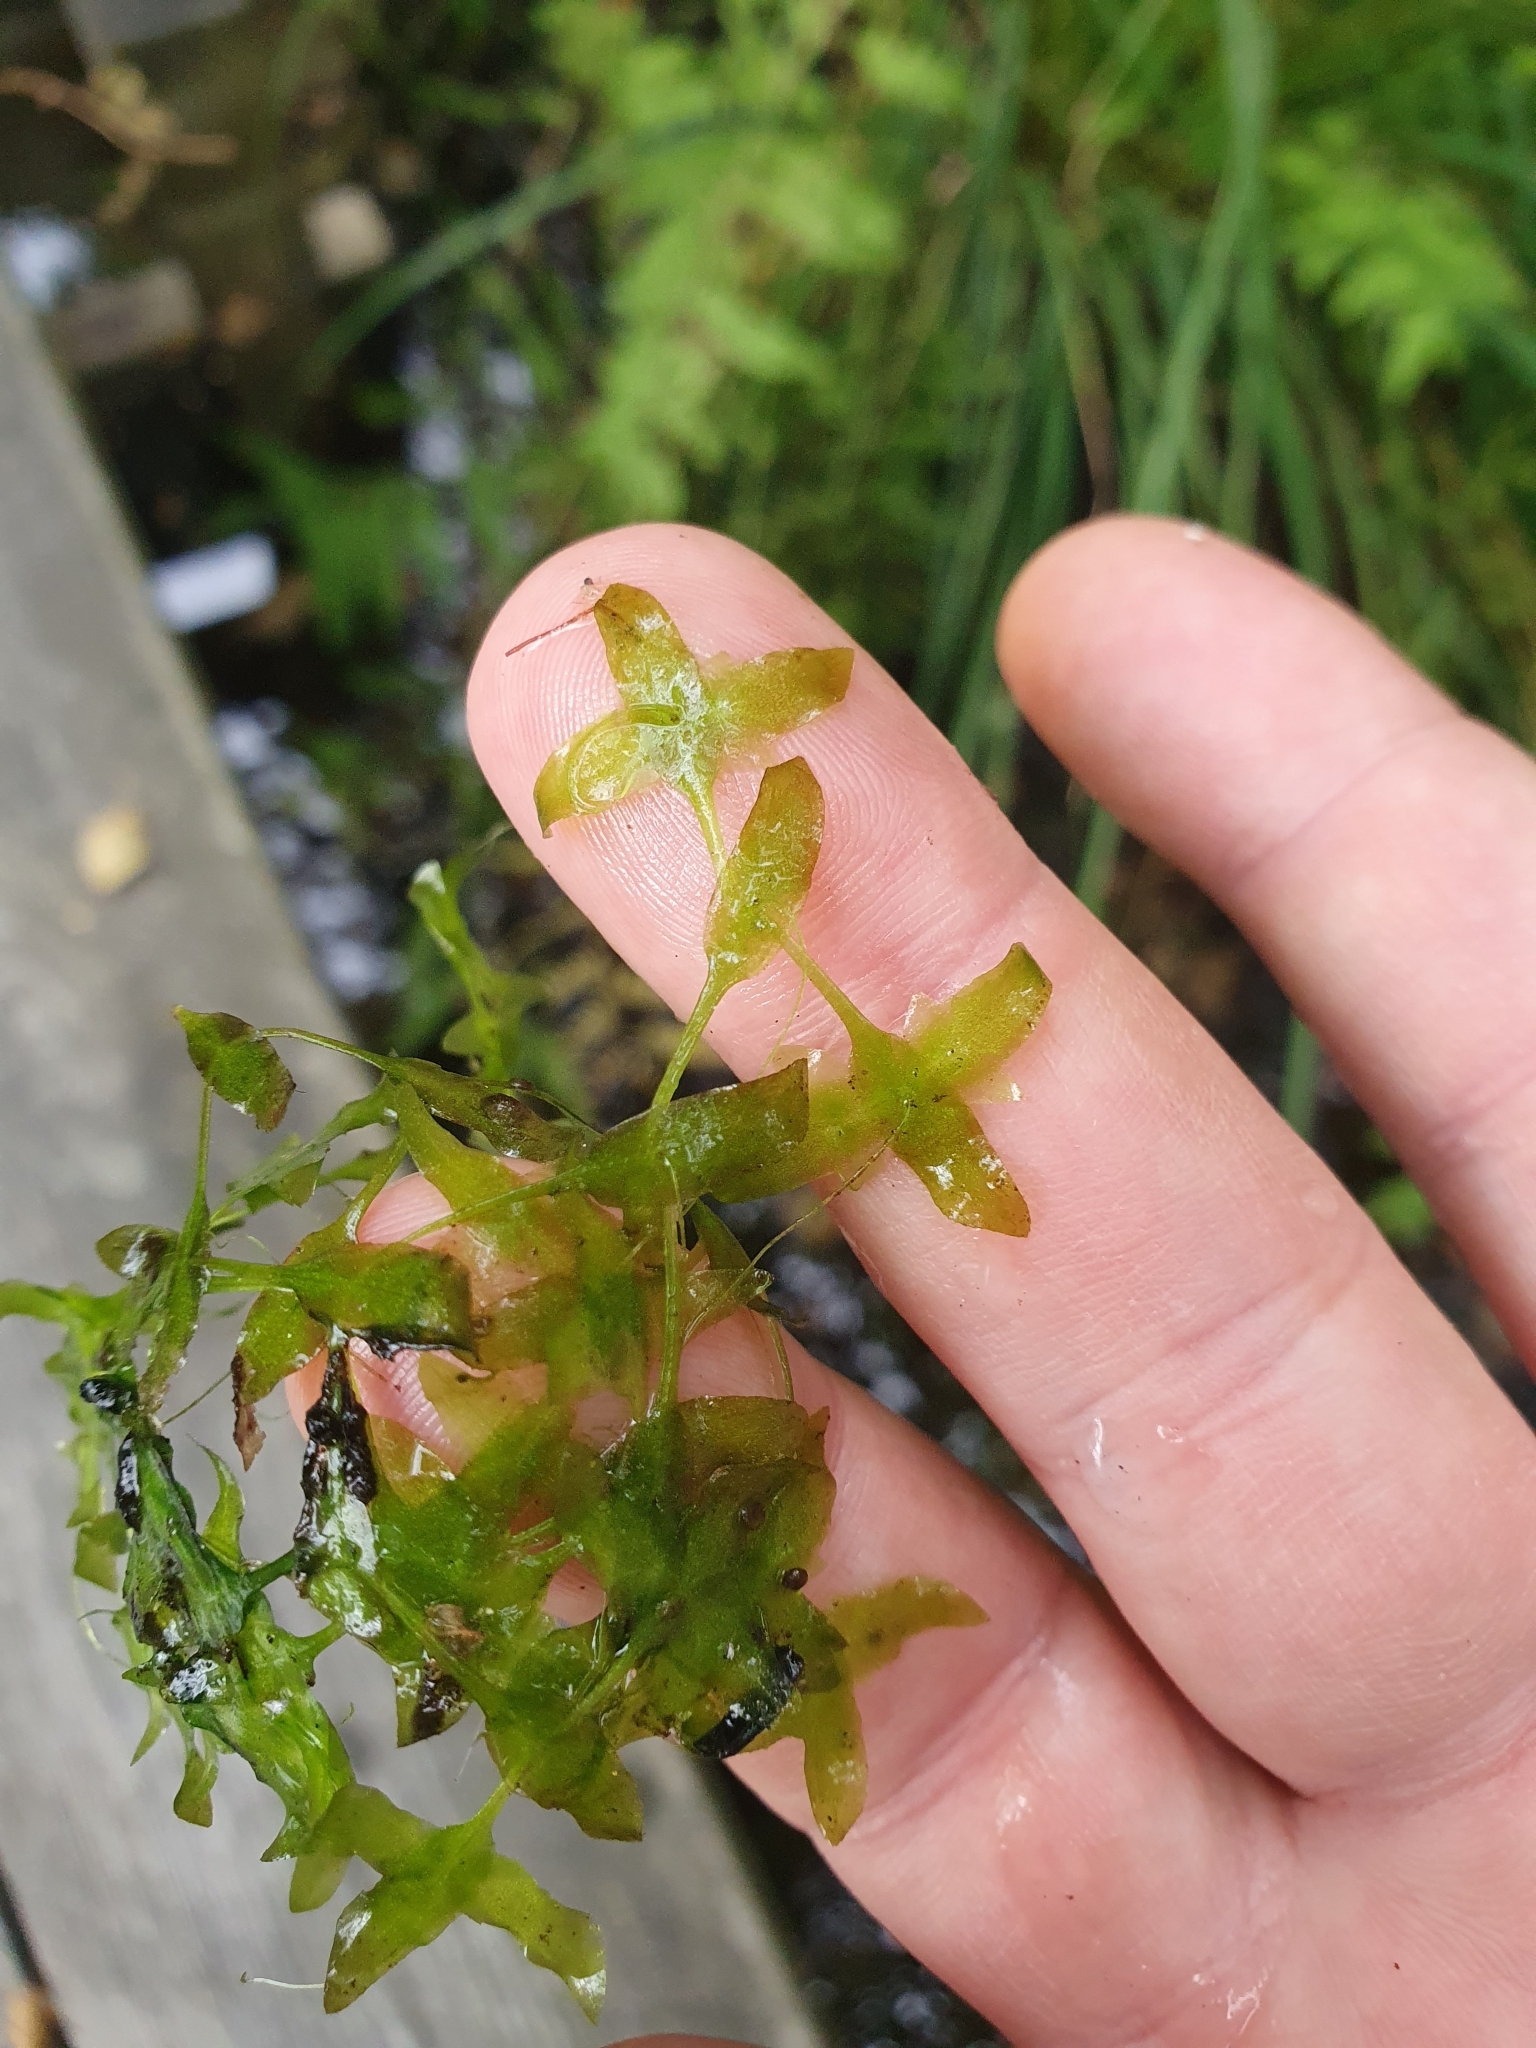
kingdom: Plantae
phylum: Tracheophyta
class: Liliopsida
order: Alismatales
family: Araceae
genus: Lemna
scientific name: Lemna trisulca
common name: Ivy-leaved duckweed
